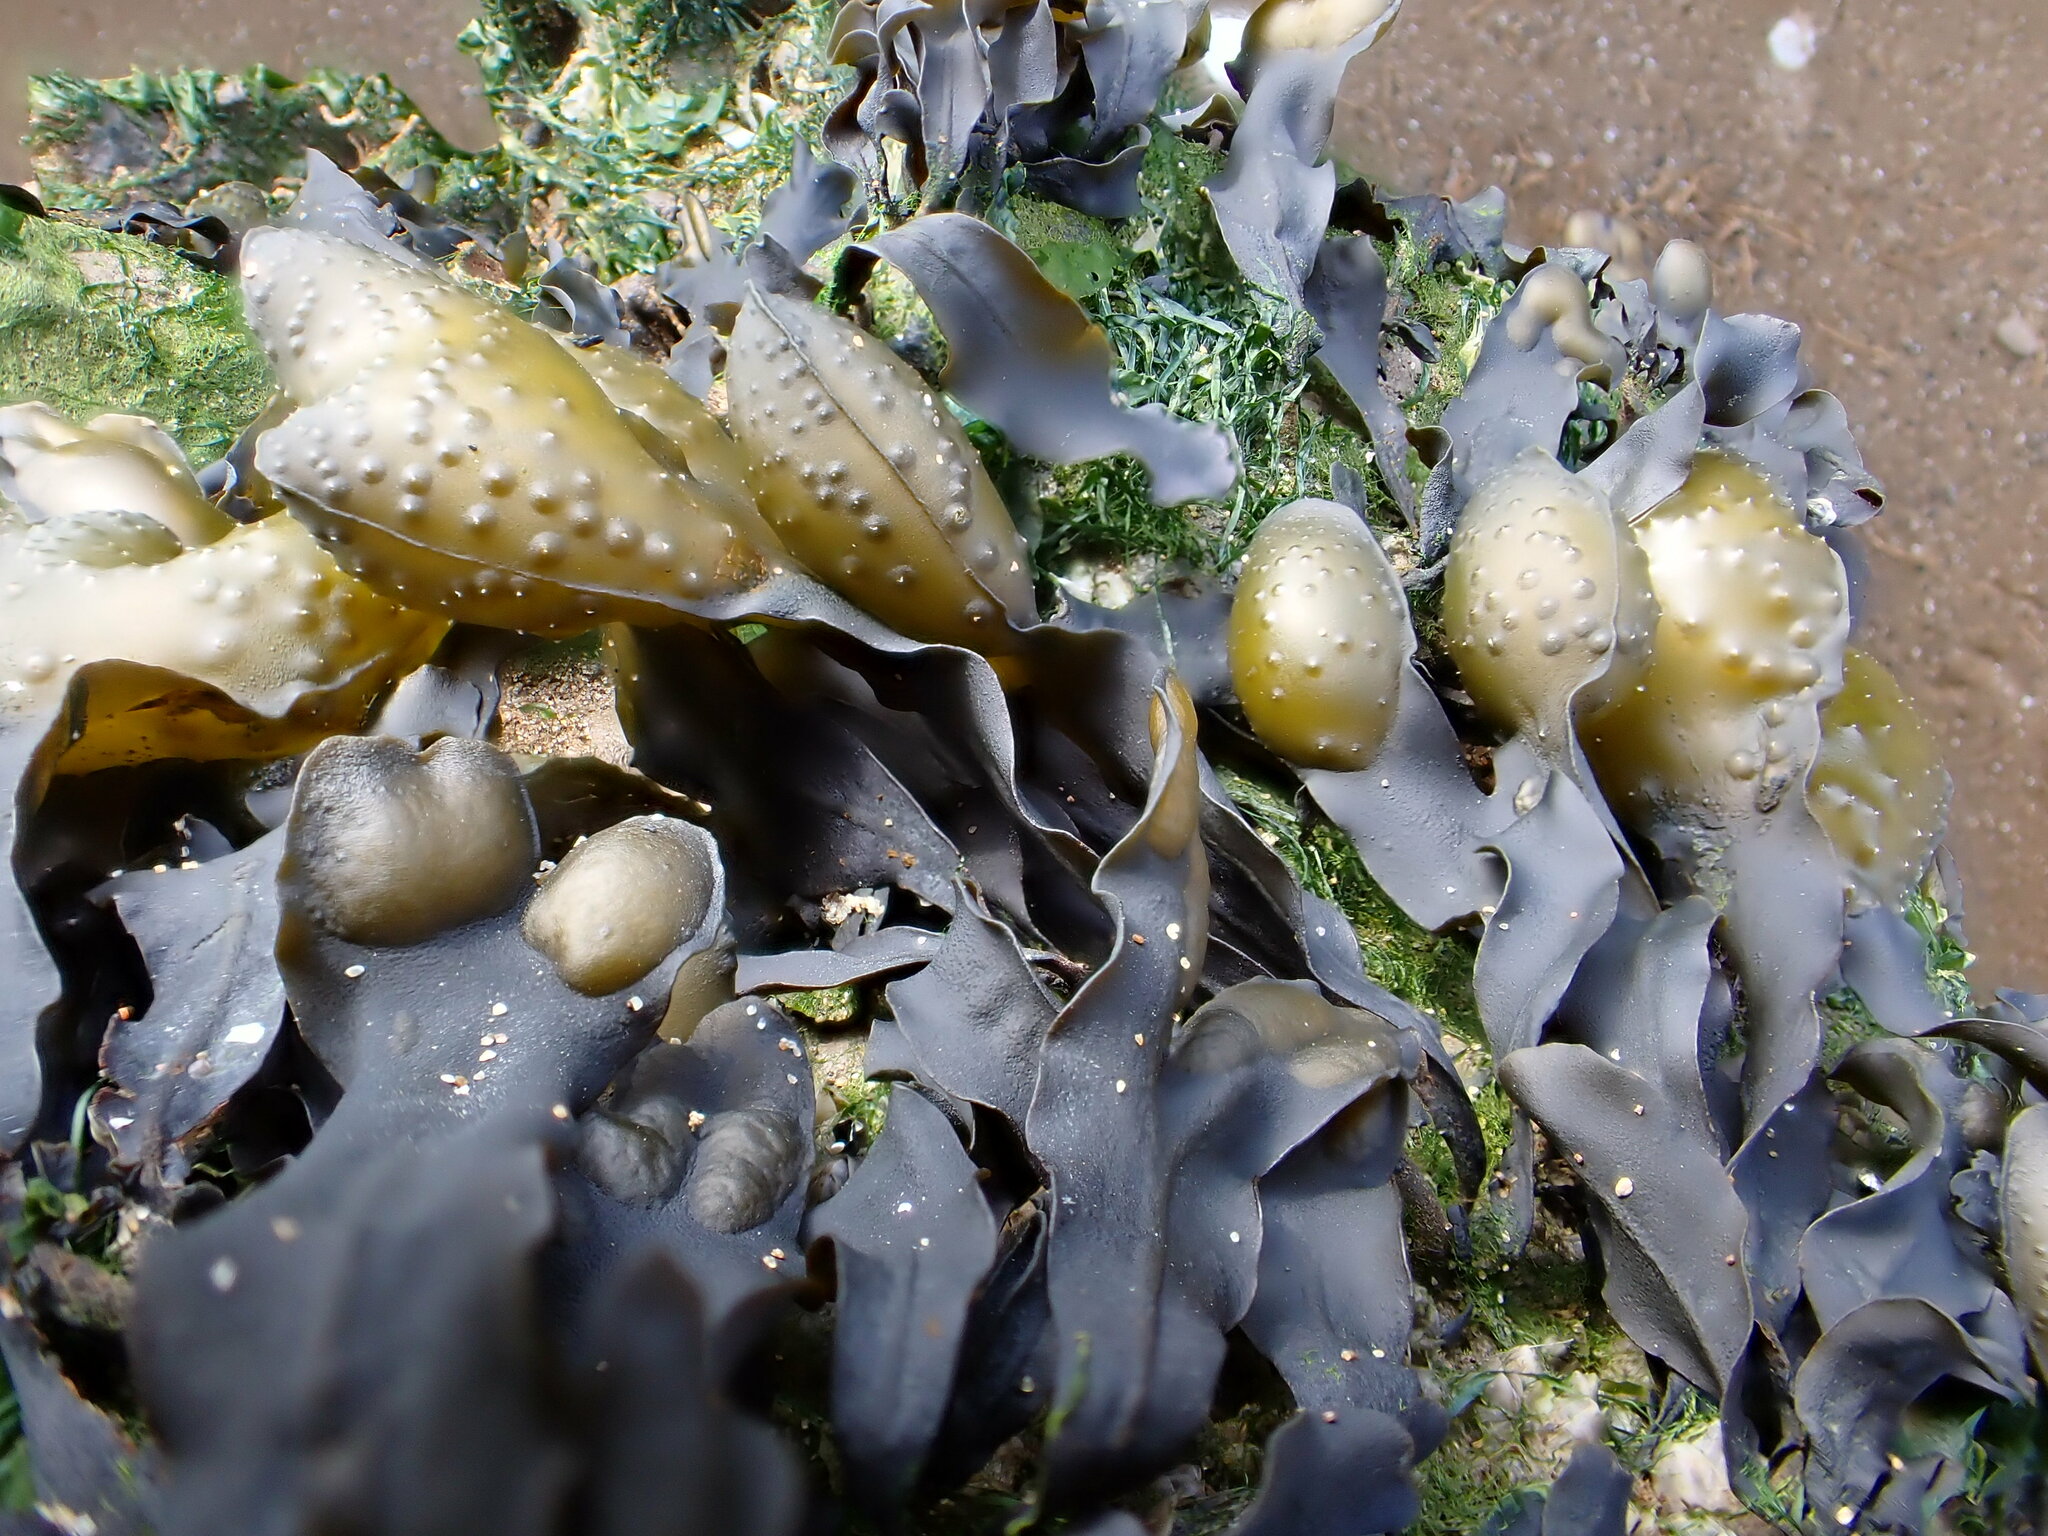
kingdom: Chromista
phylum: Ochrophyta
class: Phaeophyceae
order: Fucales
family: Fucaceae
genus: Fucus
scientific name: Fucus spiralis
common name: Spiral wrack
